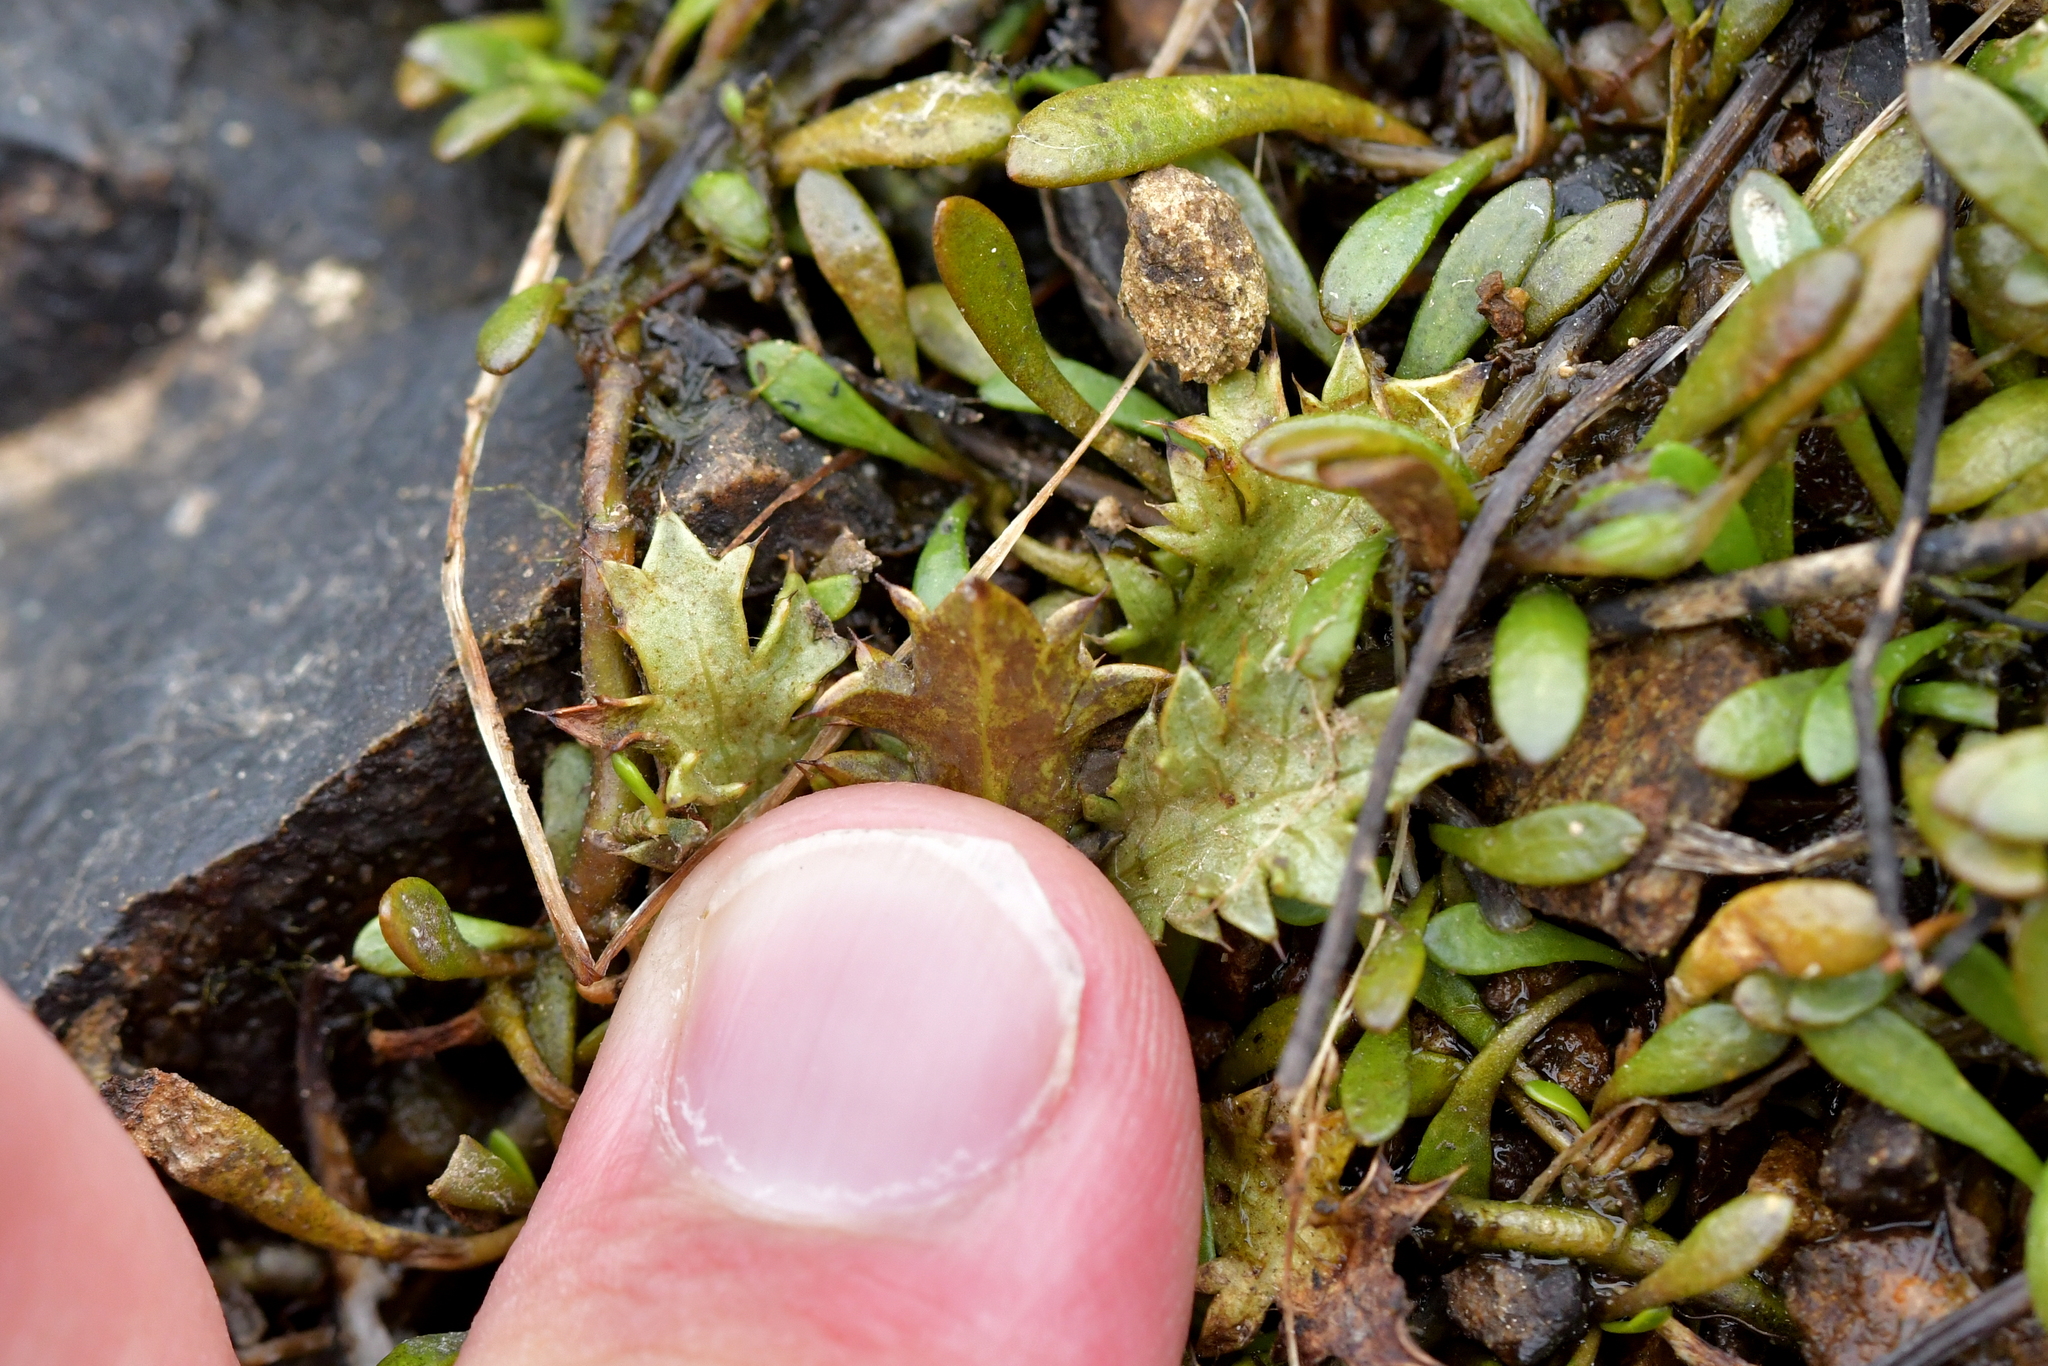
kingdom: Plantae
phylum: Tracheophyta
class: Magnoliopsida
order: Apiales
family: Apiaceae
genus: Eryngium
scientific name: Eryngium vesiculosum
